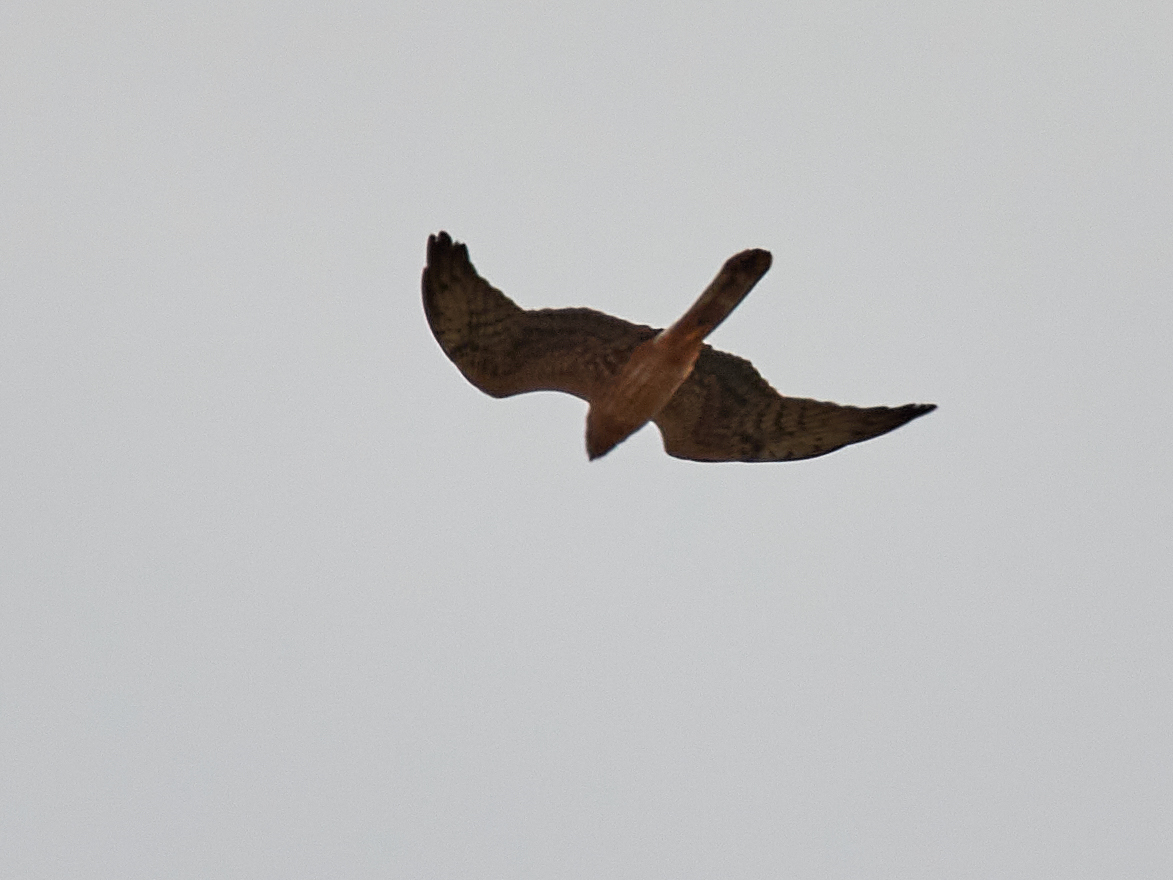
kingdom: Animalia
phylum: Chordata
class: Aves
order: Accipitriformes
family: Accipitridae
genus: Circus
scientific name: Circus cyaneus
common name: Hen harrier
